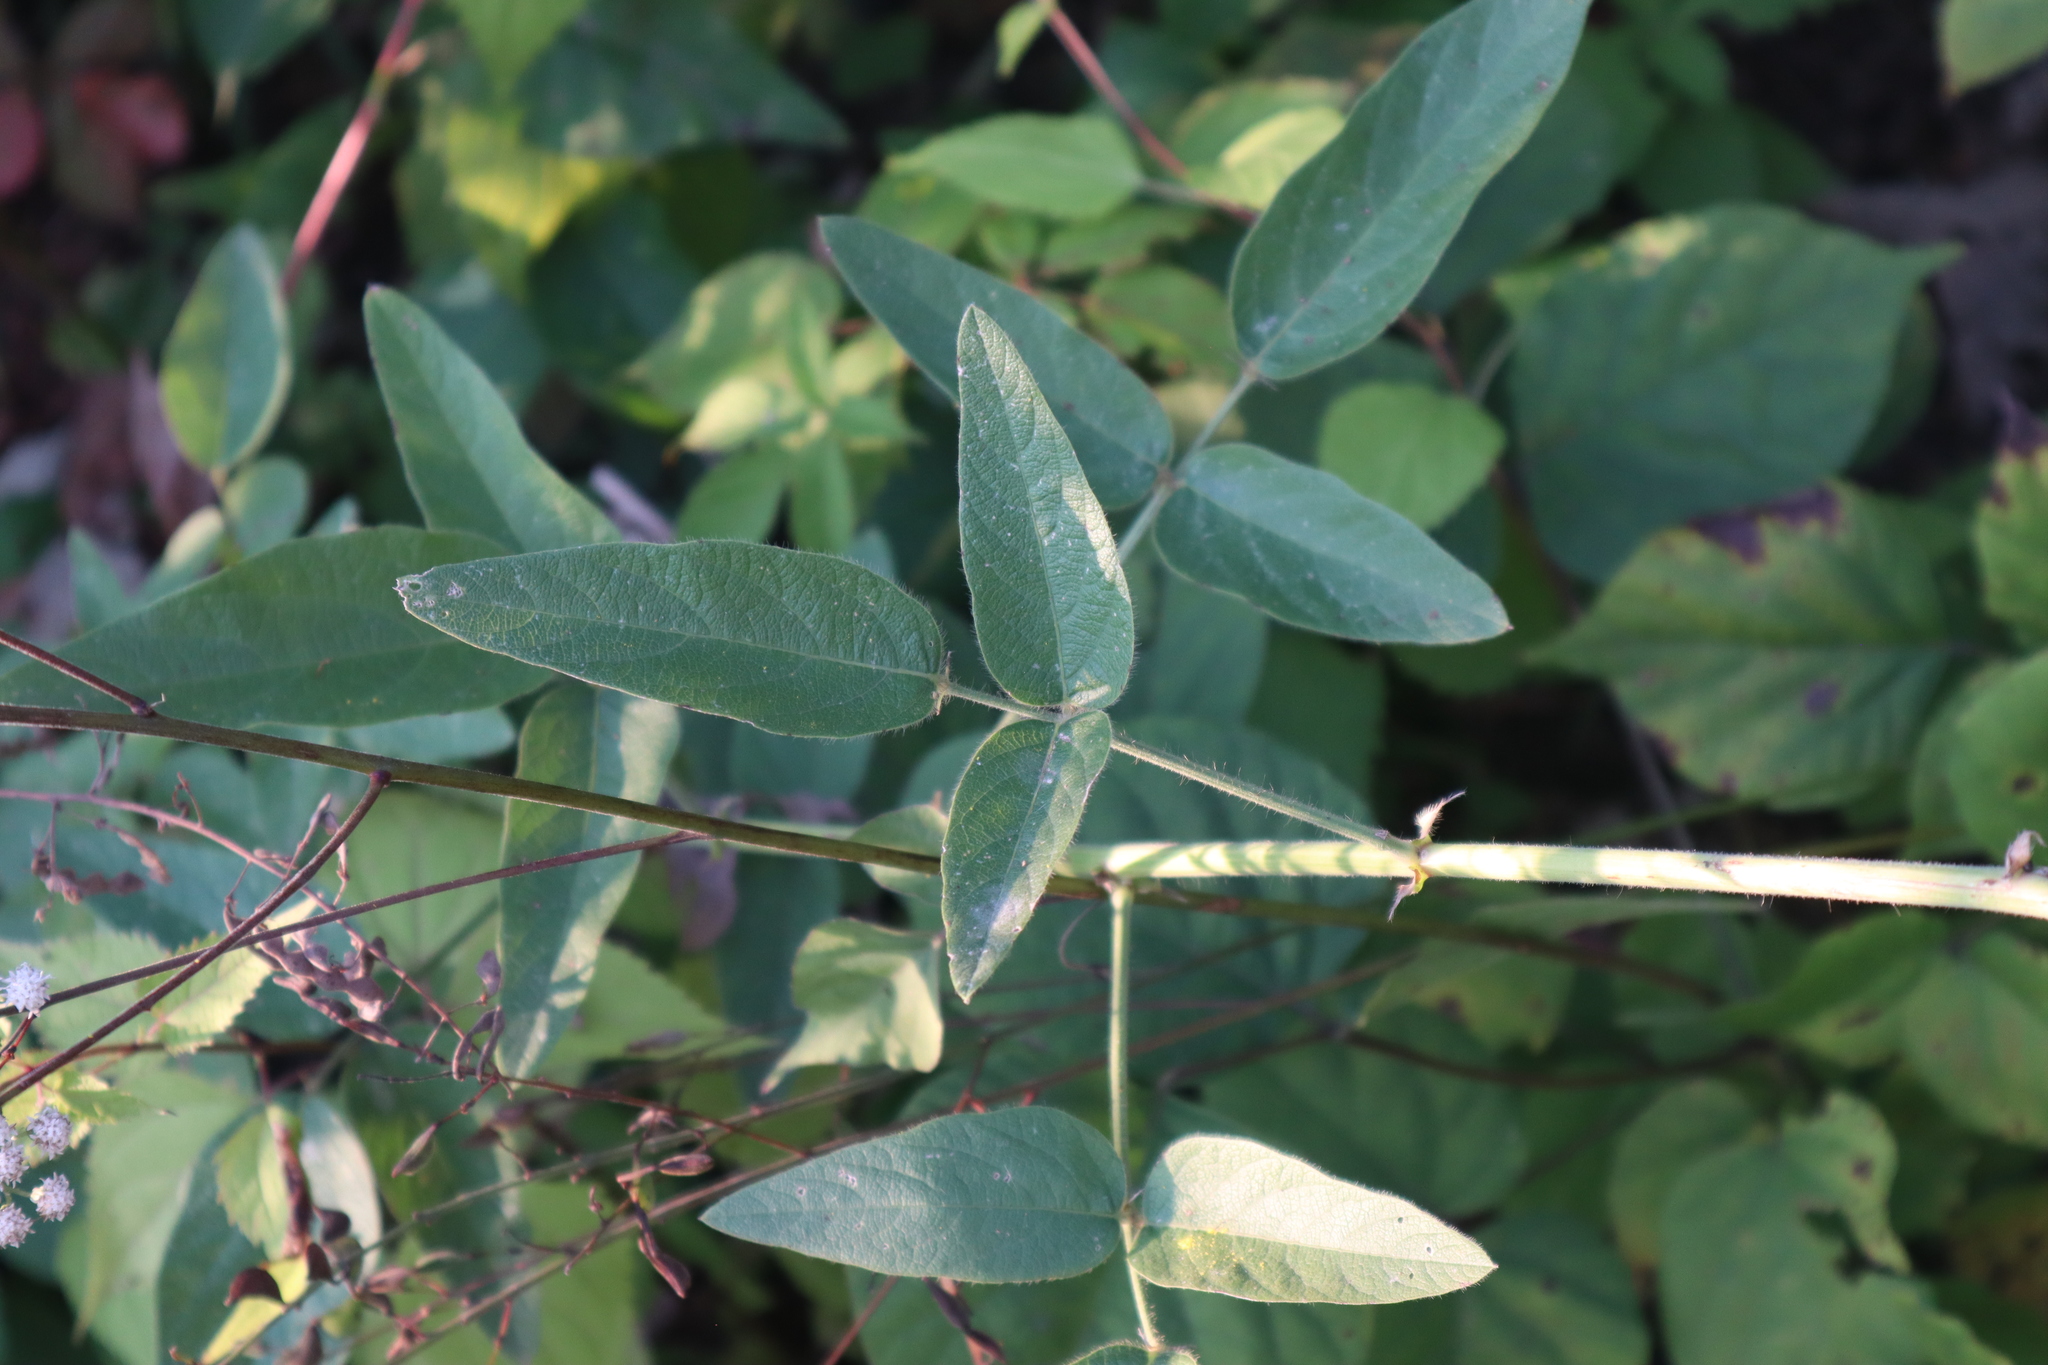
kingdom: Plantae
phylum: Tracheophyta
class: Magnoliopsida
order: Fabales
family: Fabaceae
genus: Desmodium
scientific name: Desmodium illinoense
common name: Illinois tick-clover
